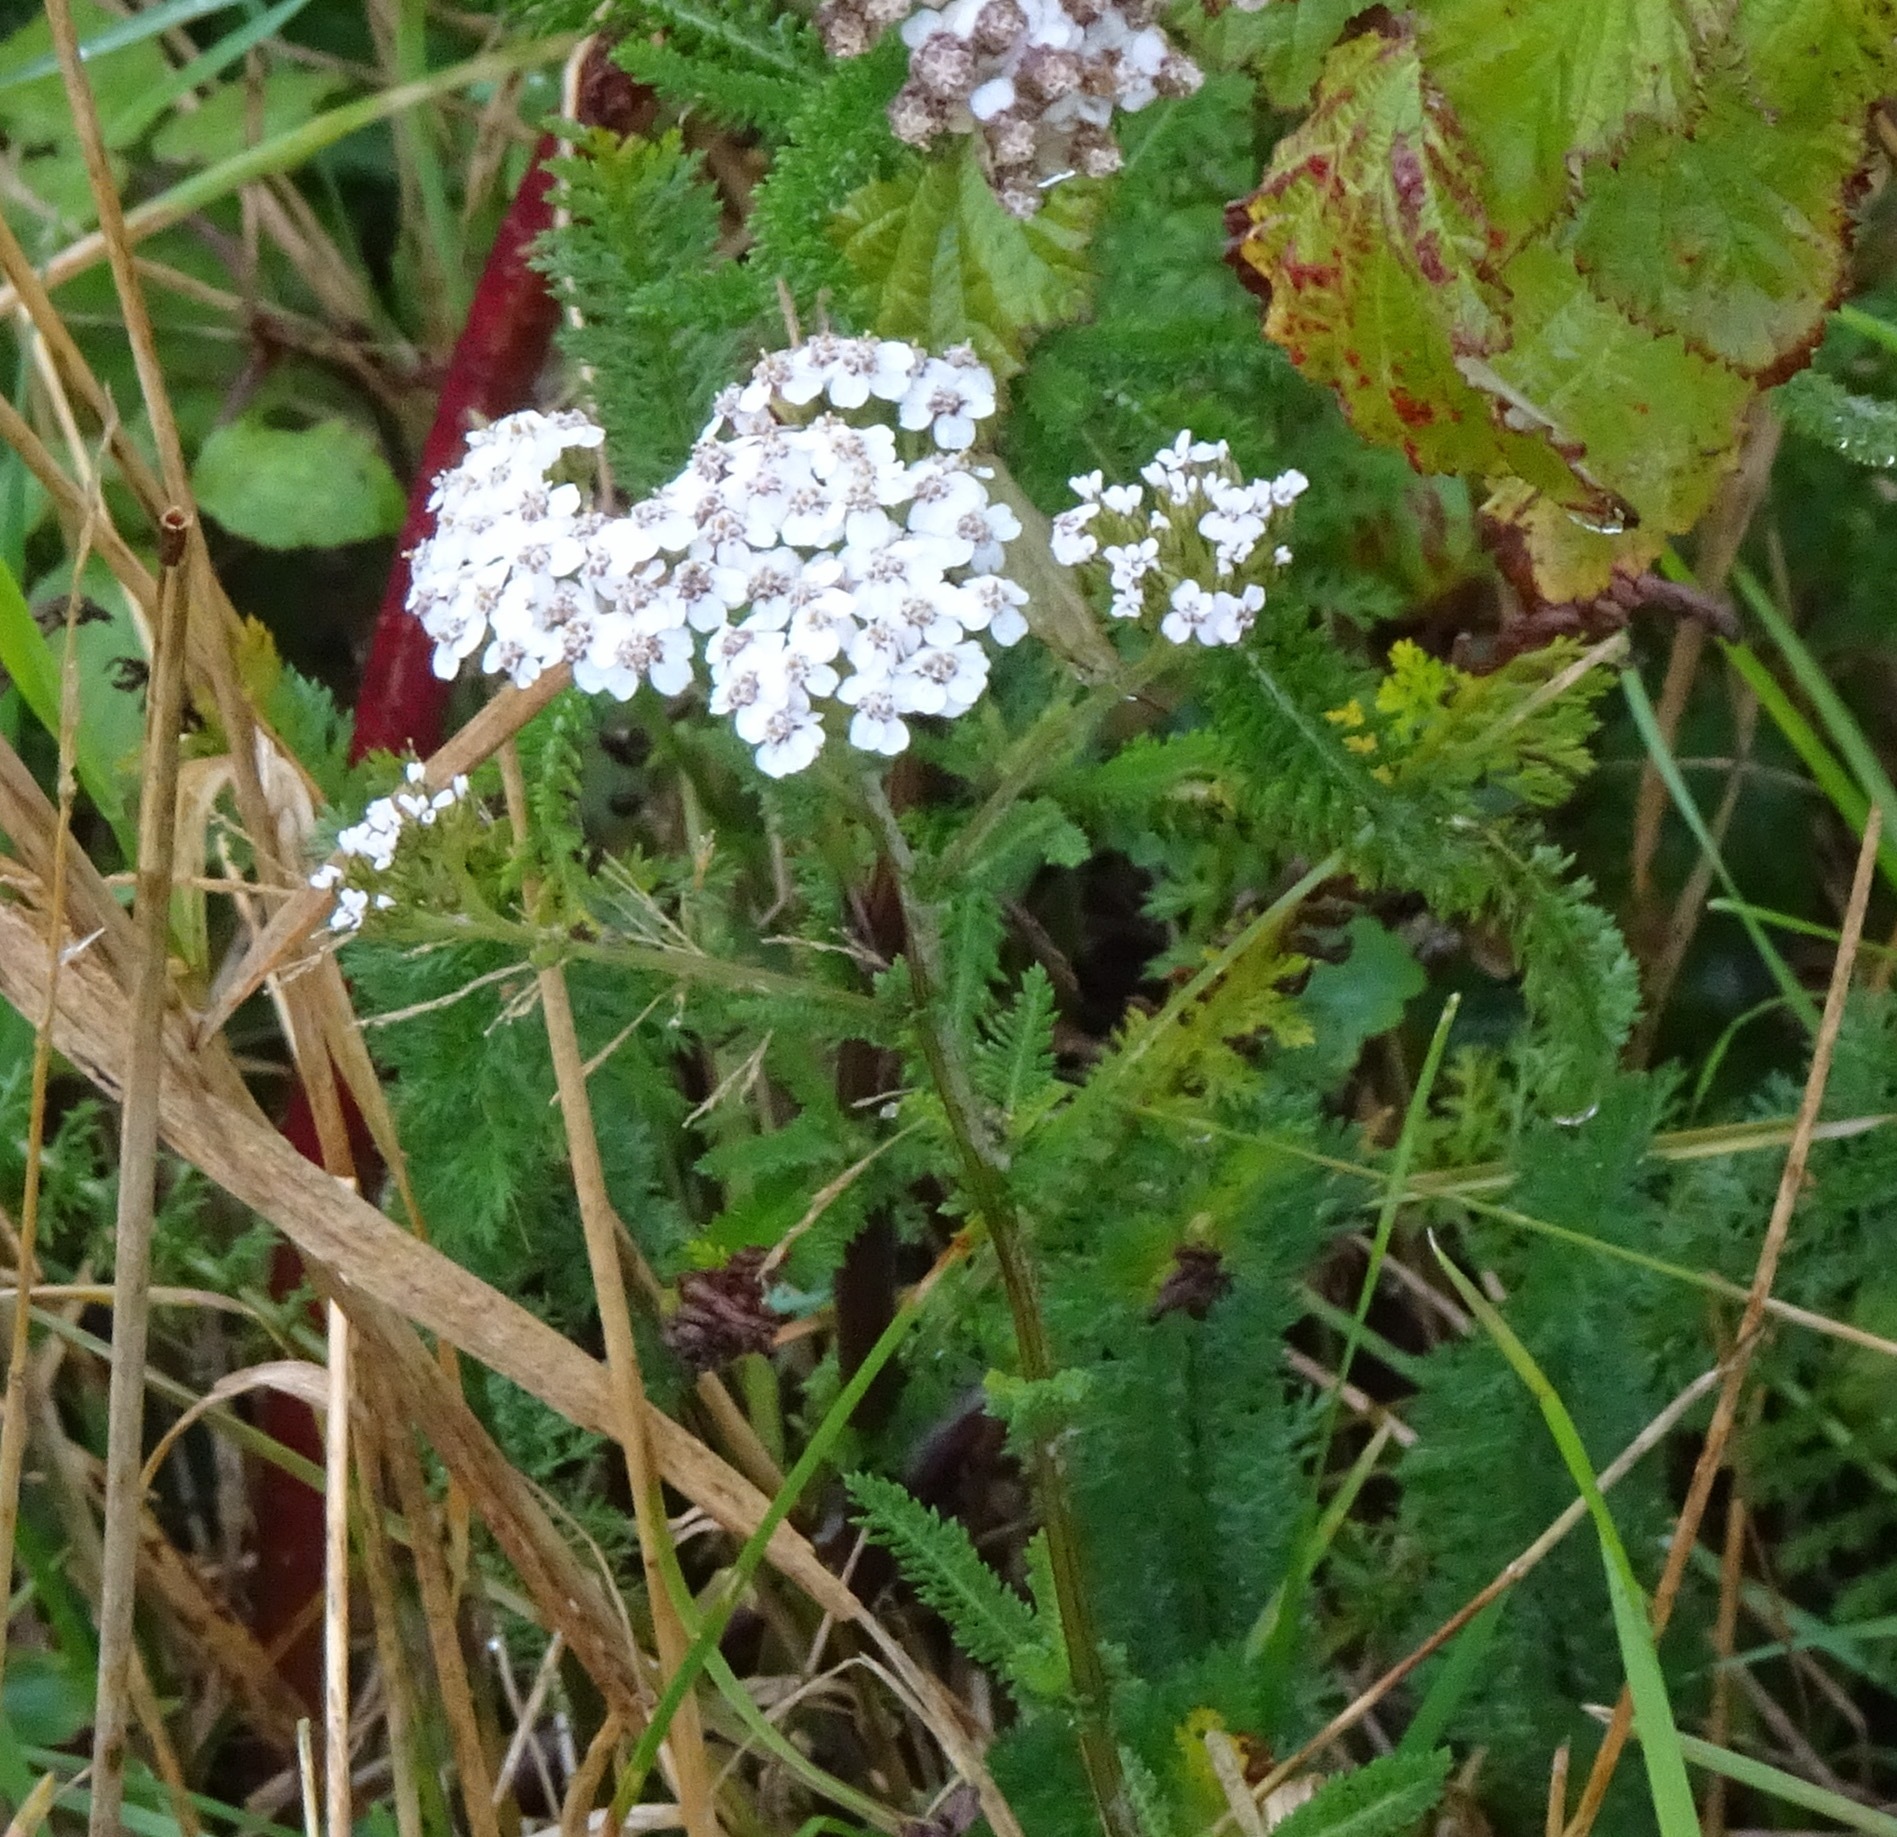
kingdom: Plantae
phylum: Tracheophyta
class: Magnoliopsida
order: Asterales
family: Asteraceae
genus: Achillea
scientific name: Achillea millefolium
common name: Yarrow
